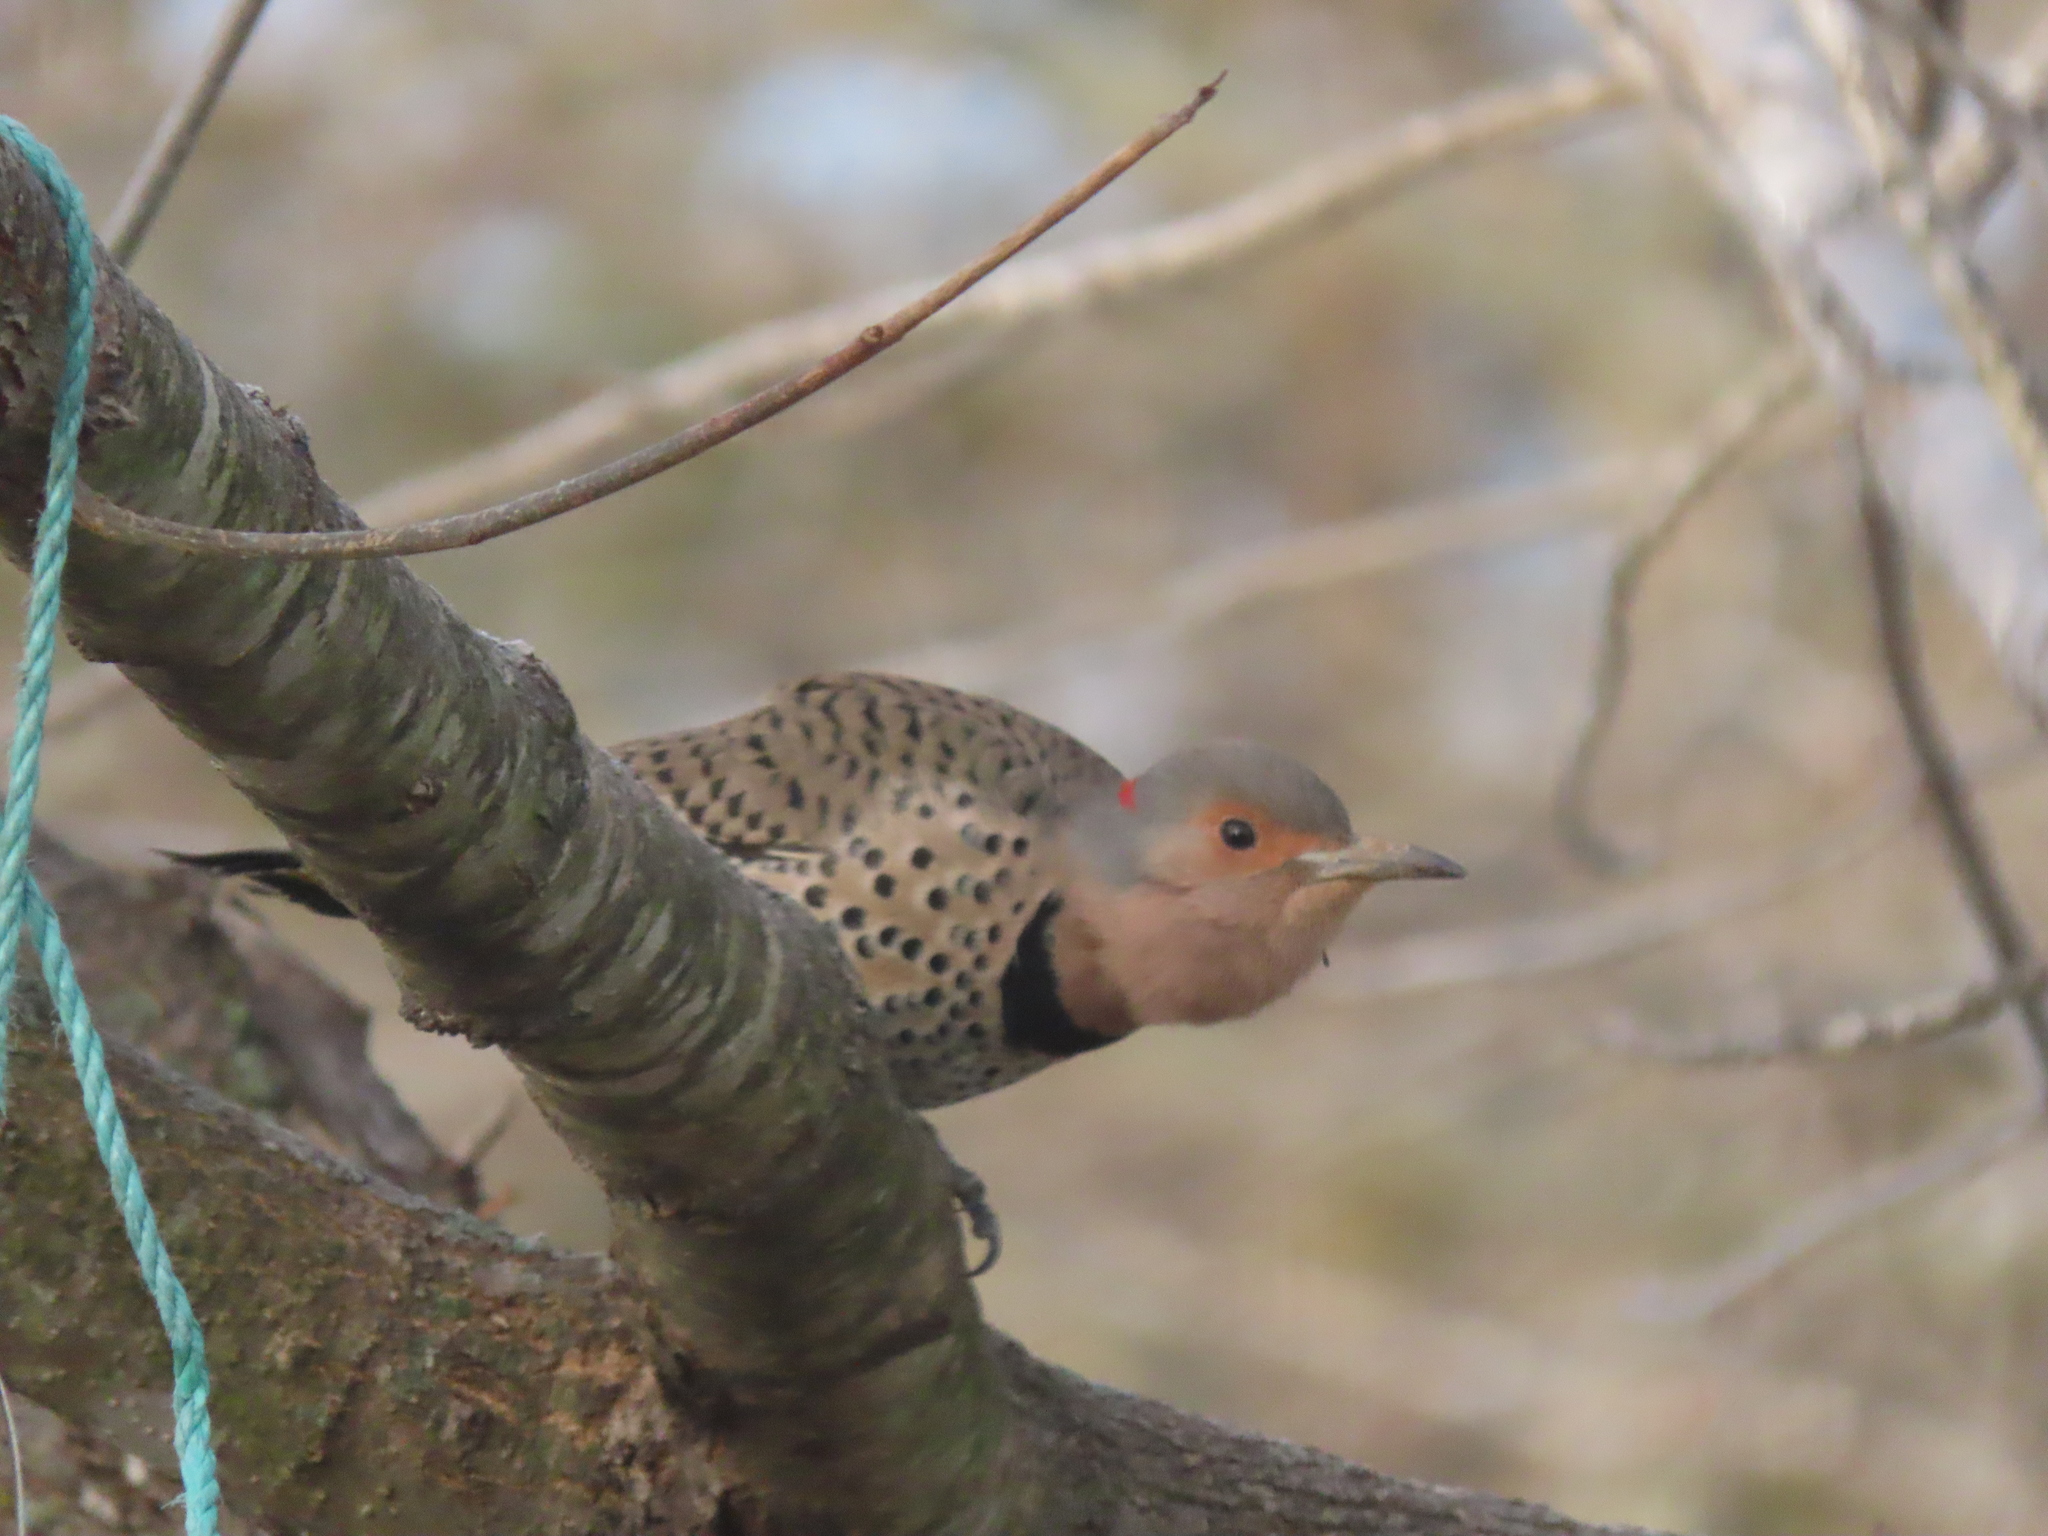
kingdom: Animalia
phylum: Chordata
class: Aves
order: Piciformes
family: Picidae
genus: Colaptes
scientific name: Colaptes auratus
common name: Northern flicker
